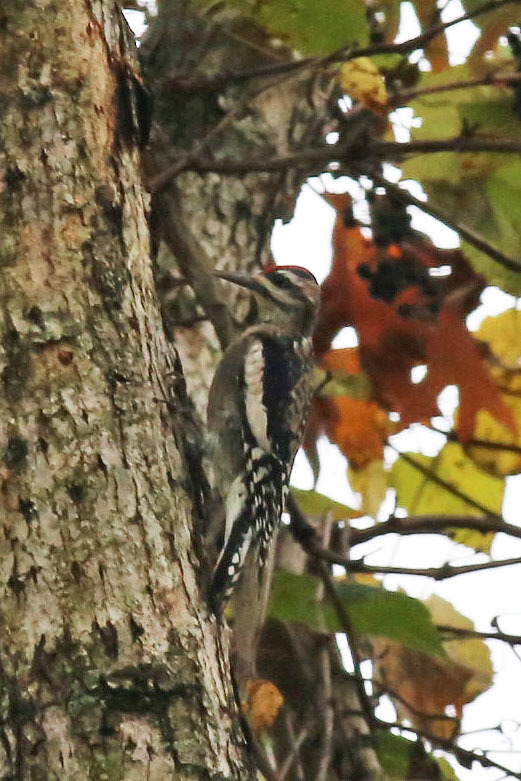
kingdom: Animalia
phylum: Chordata
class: Aves
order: Piciformes
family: Picidae
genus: Sphyrapicus
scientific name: Sphyrapicus varius
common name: Yellow-bellied sapsucker
